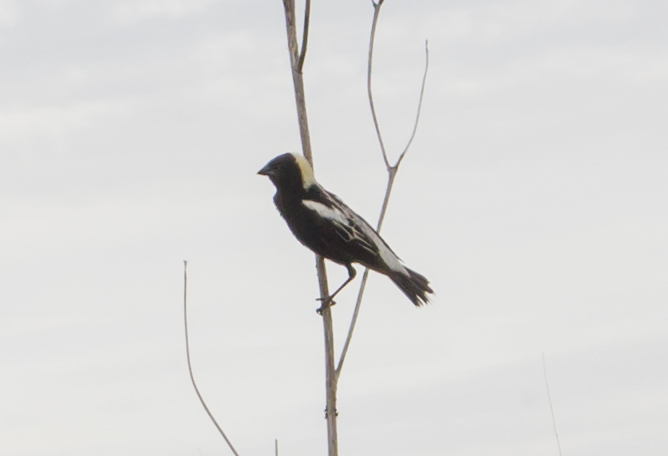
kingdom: Animalia
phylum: Chordata
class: Aves
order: Passeriformes
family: Icteridae
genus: Dolichonyx
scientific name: Dolichonyx oryzivorus
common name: Bobolink
